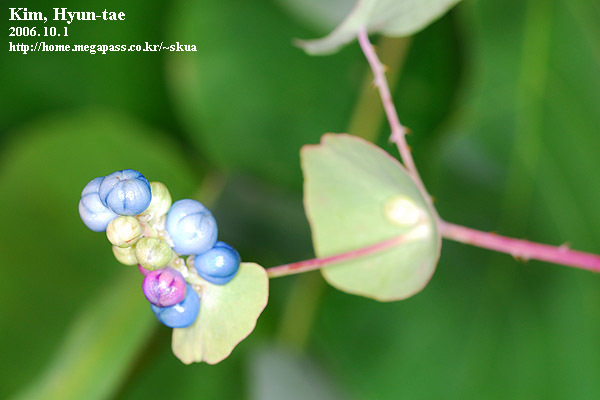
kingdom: Plantae
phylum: Tracheophyta
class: Magnoliopsida
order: Caryophyllales
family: Polygonaceae
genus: Persicaria
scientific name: Persicaria perfoliata
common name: Asiatic tearthumb
